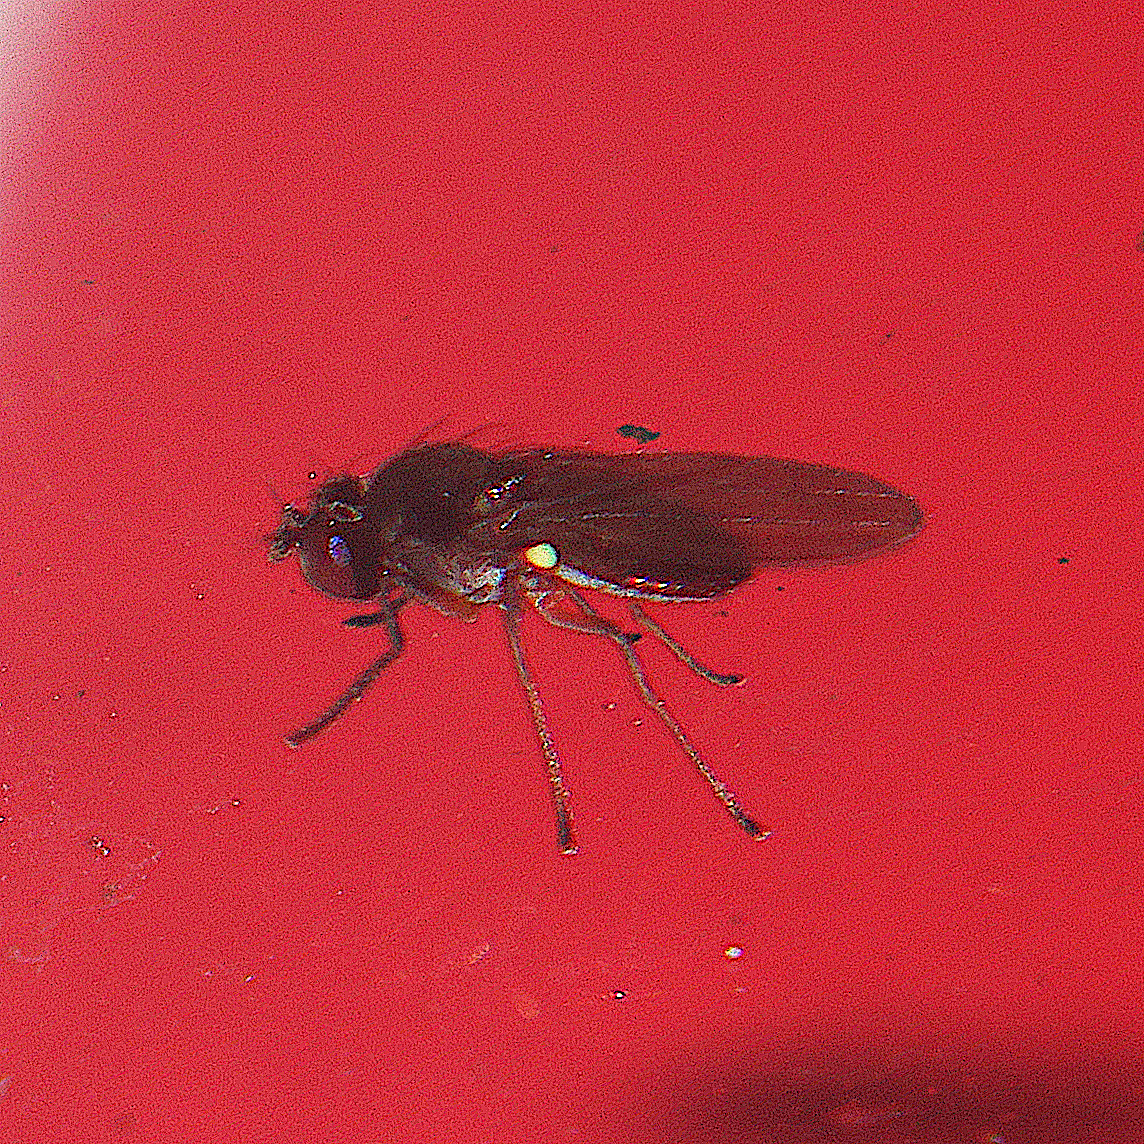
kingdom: Animalia
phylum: Arthropoda
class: Insecta
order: Diptera
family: Ephydridae
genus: Hydrellia
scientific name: Hydrellia tritici
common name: Shore fly
